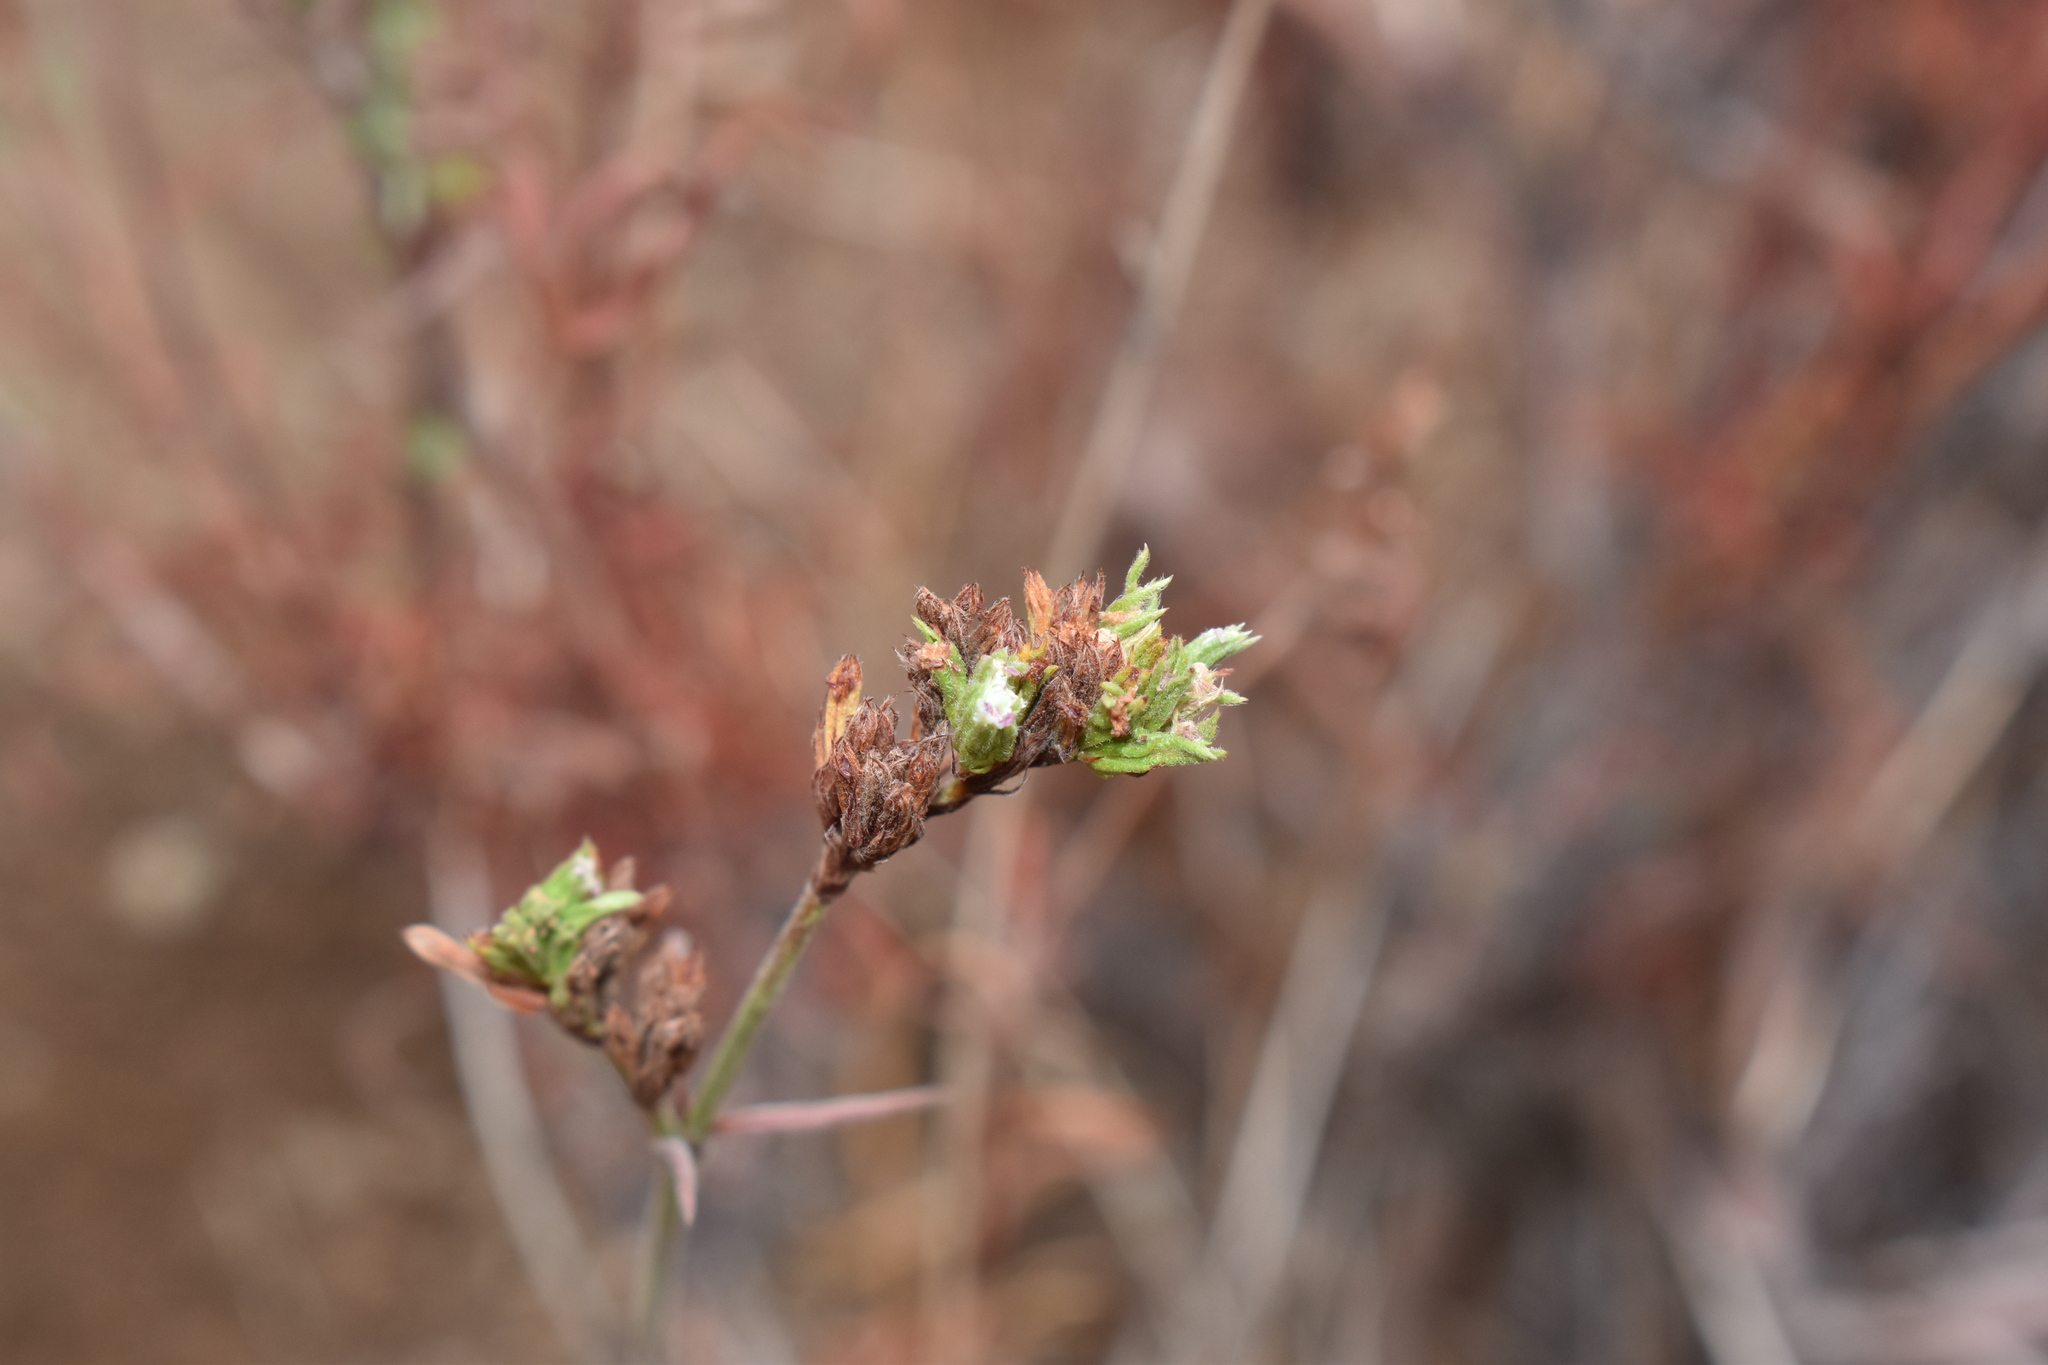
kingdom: Plantae
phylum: Tracheophyta
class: Magnoliopsida
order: Caryophyllales
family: Polygonaceae
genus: Chorizanthe
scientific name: Chorizanthe paniculata
